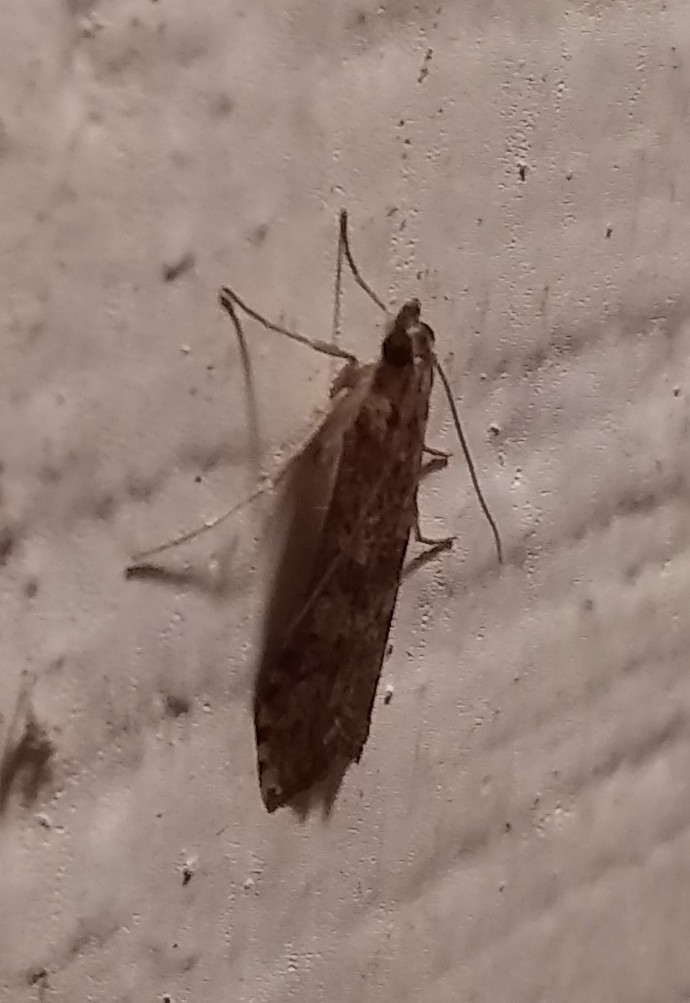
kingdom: Animalia
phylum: Arthropoda
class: Insecta
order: Lepidoptera
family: Crambidae
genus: Nomophila
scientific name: Nomophila nearctica
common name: American rush veneer
